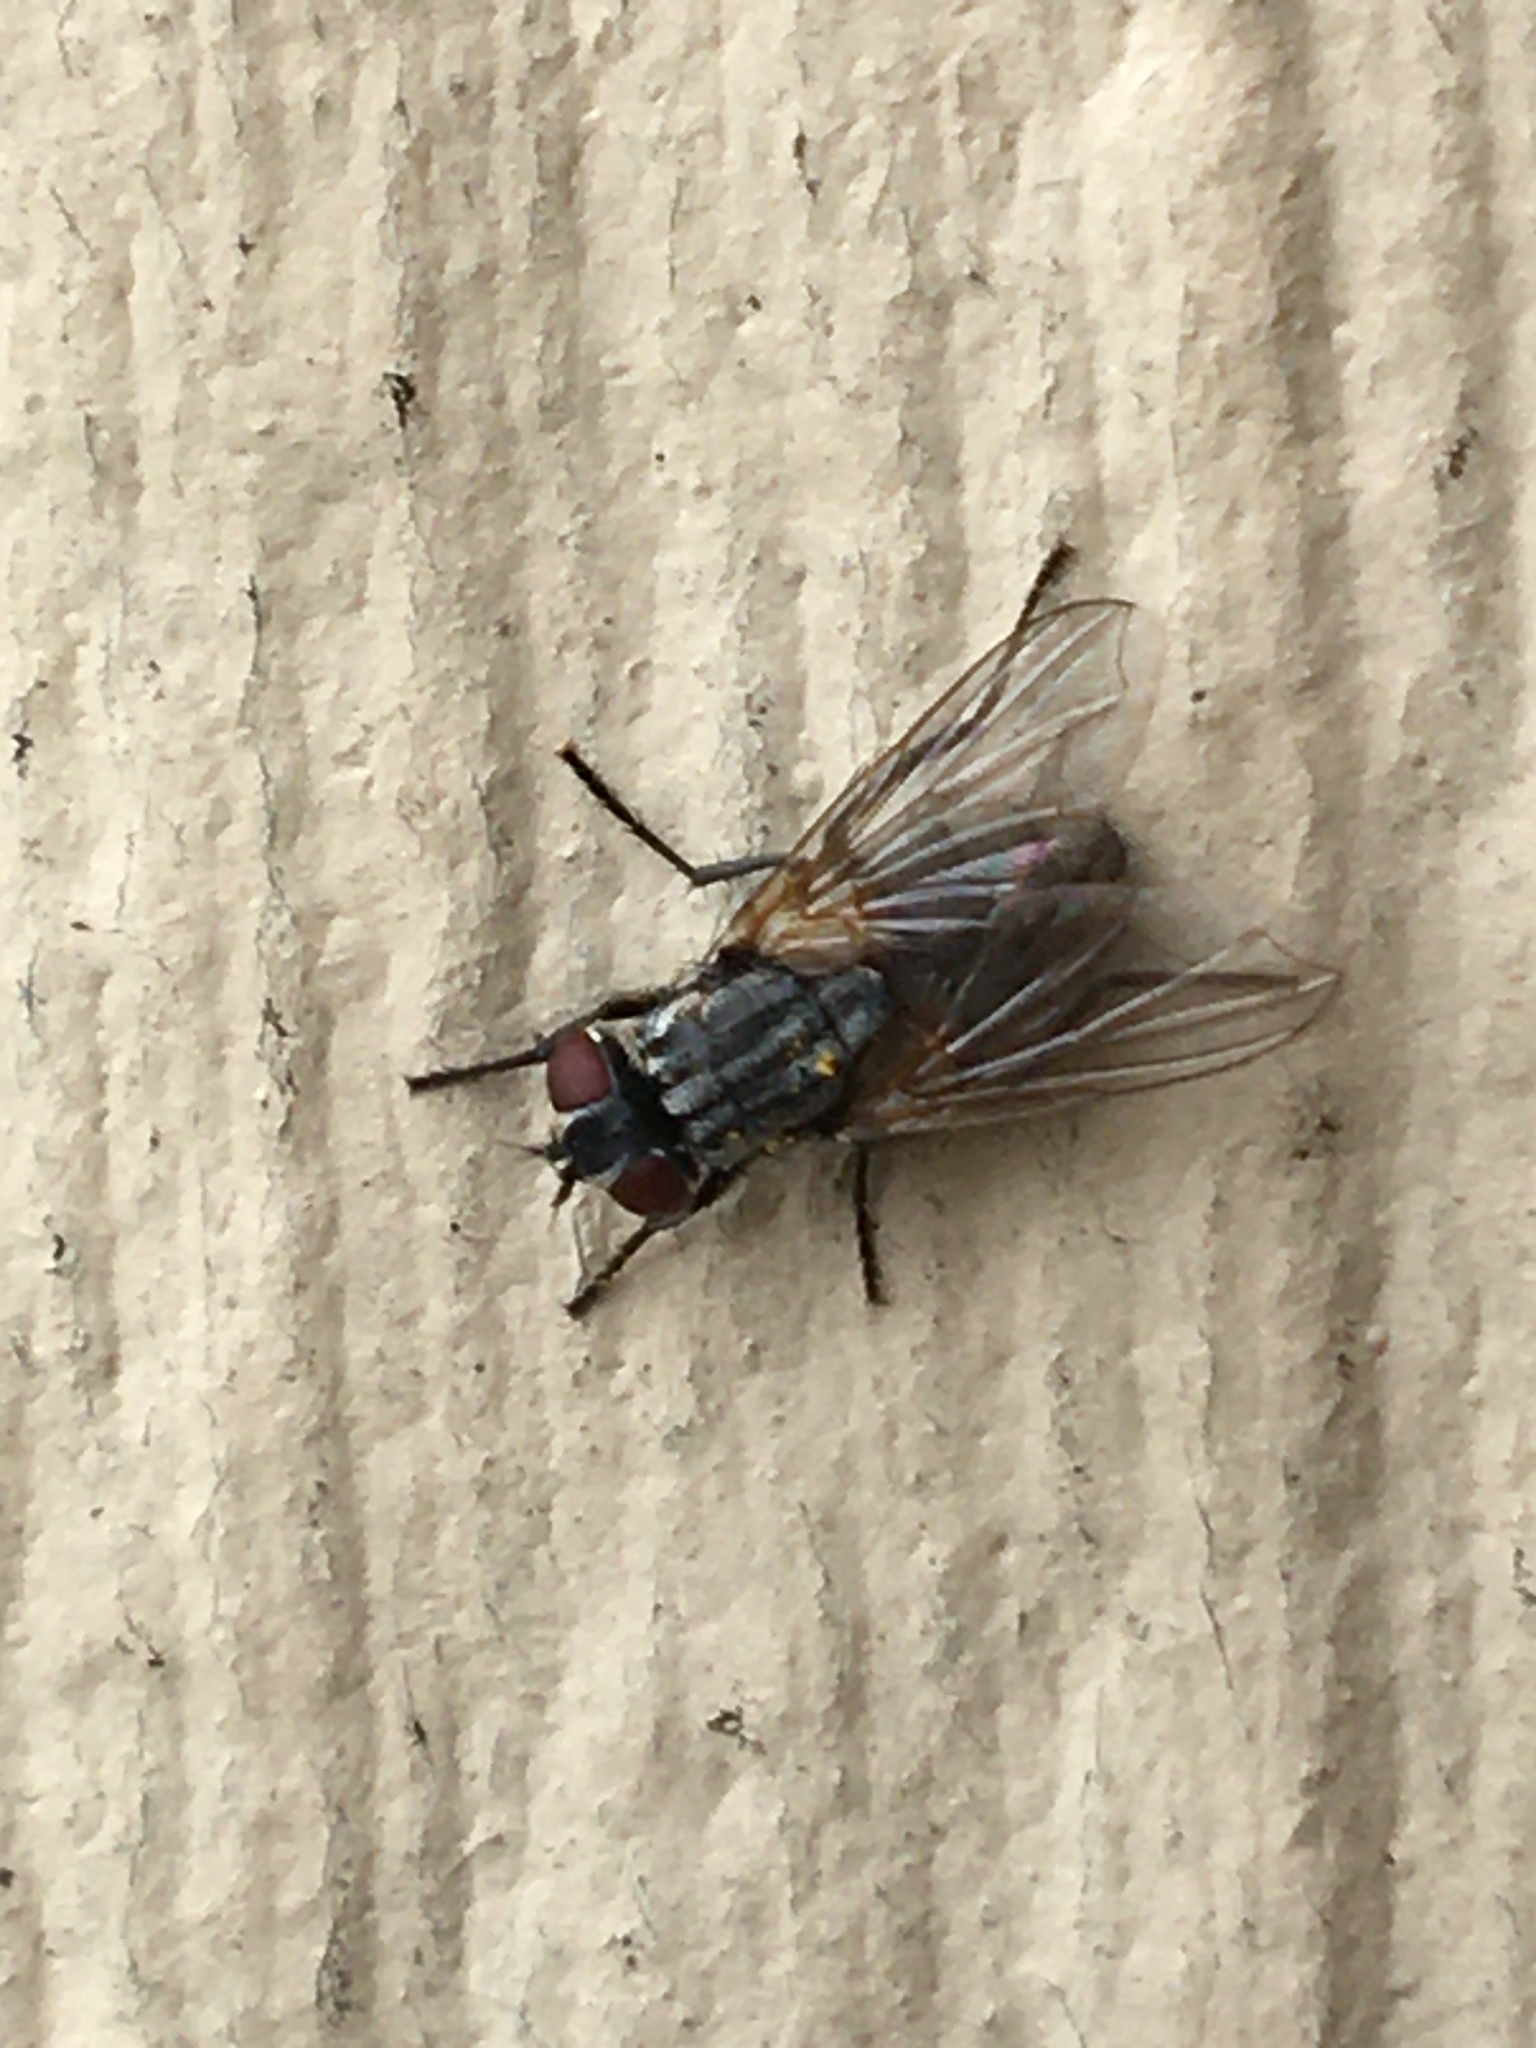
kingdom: Animalia
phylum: Arthropoda
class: Insecta
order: Diptera
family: Muscidae
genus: Musca
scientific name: Musca domestica
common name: House fly
